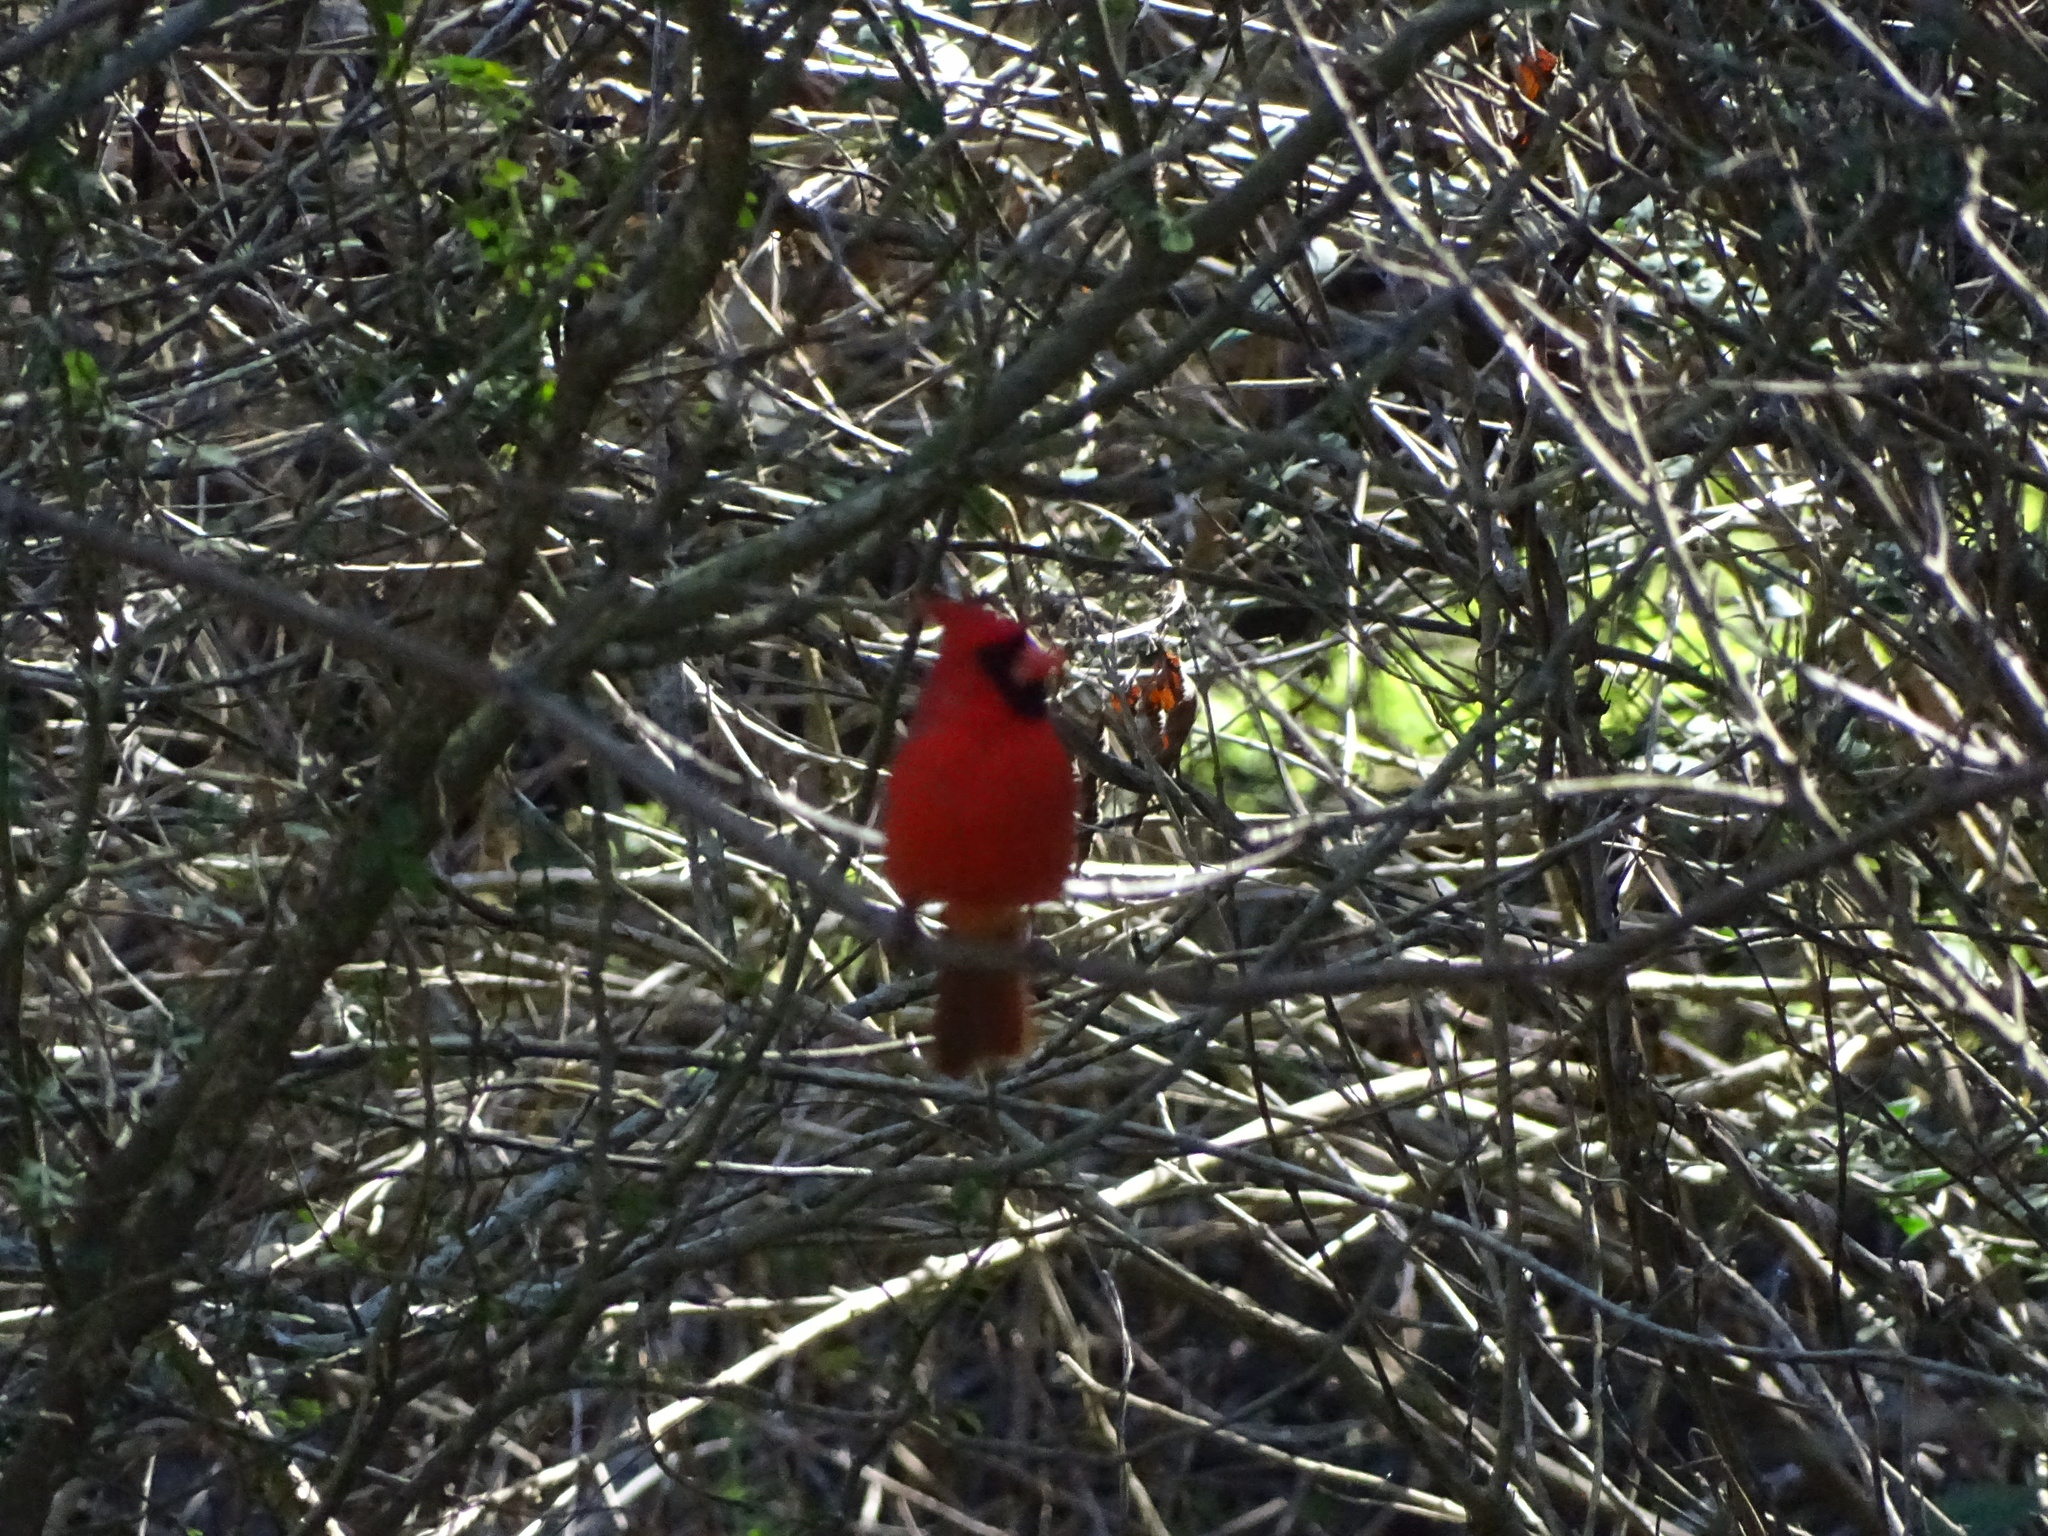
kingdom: Animalia
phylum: Chordata
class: Aves
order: Passeriformes
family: Cardinalidae
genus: Cardinalis
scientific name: Cardinalis cardinalis
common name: Northern cardinal
